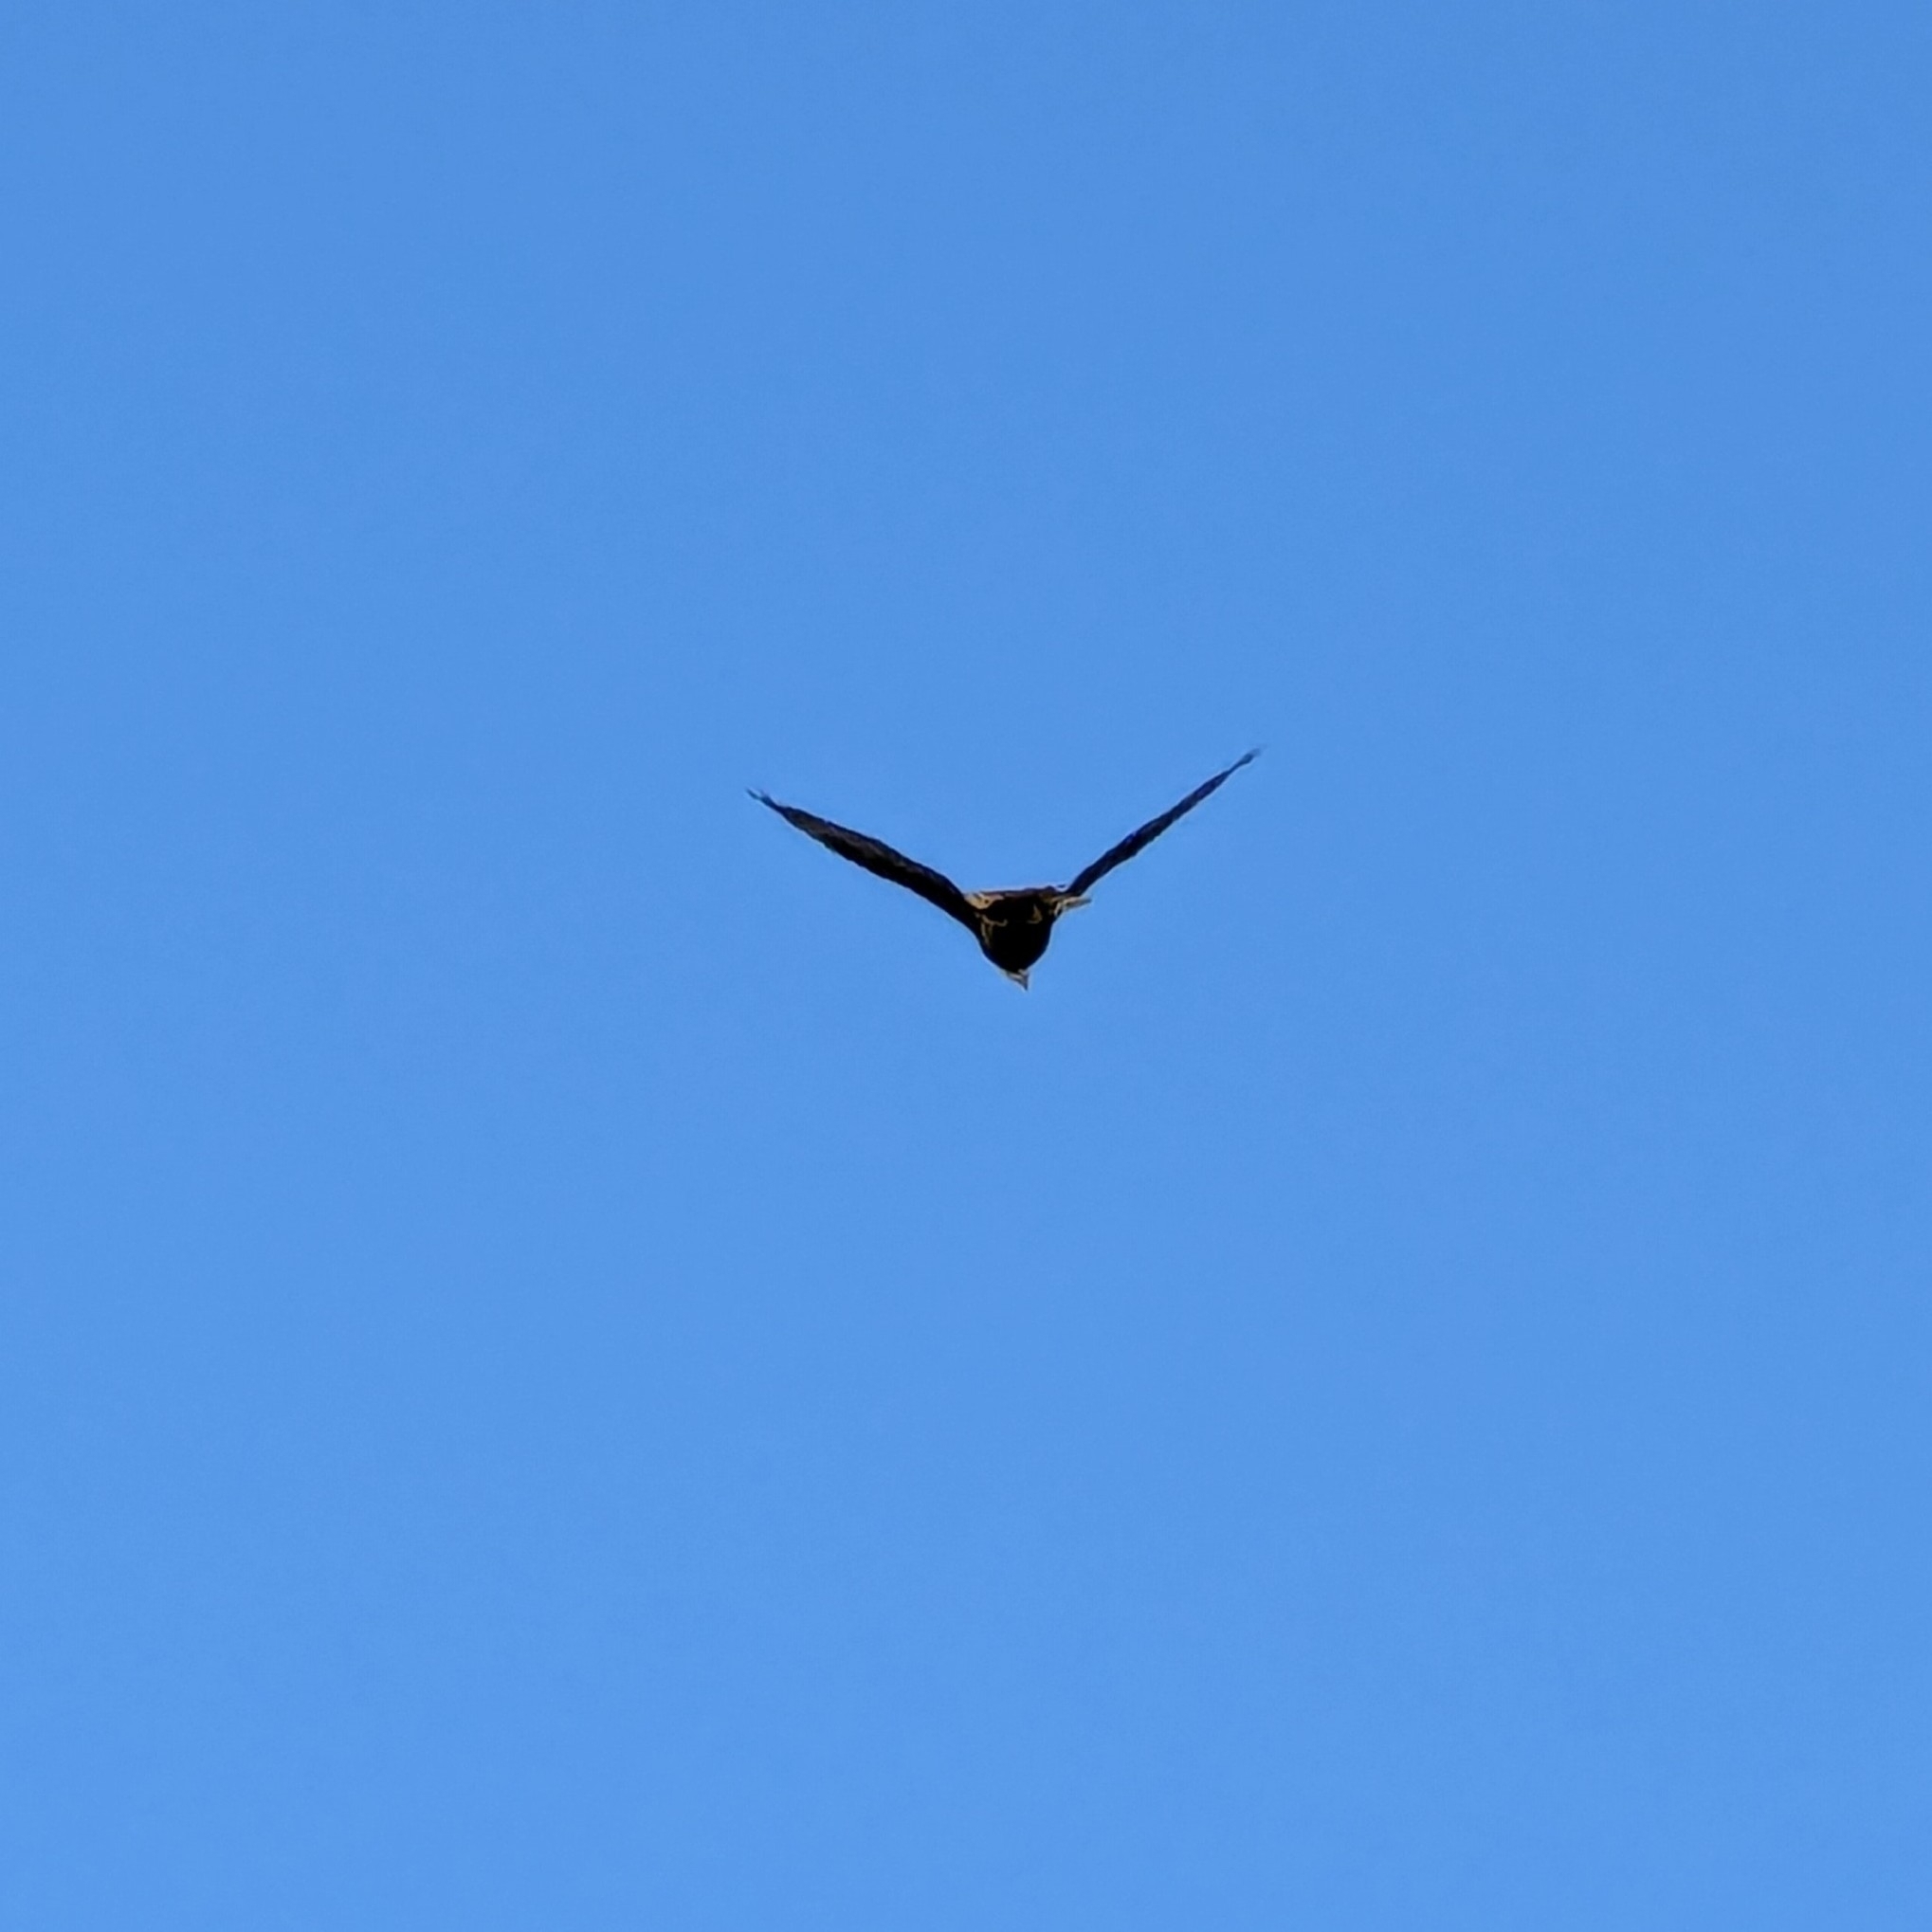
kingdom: Animalia
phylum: Chordata
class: Aves
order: Accipitriformes
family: Accipitridae
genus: Haliaeetus
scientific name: Haliaeetus leucocephalus
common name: Bald eagle
